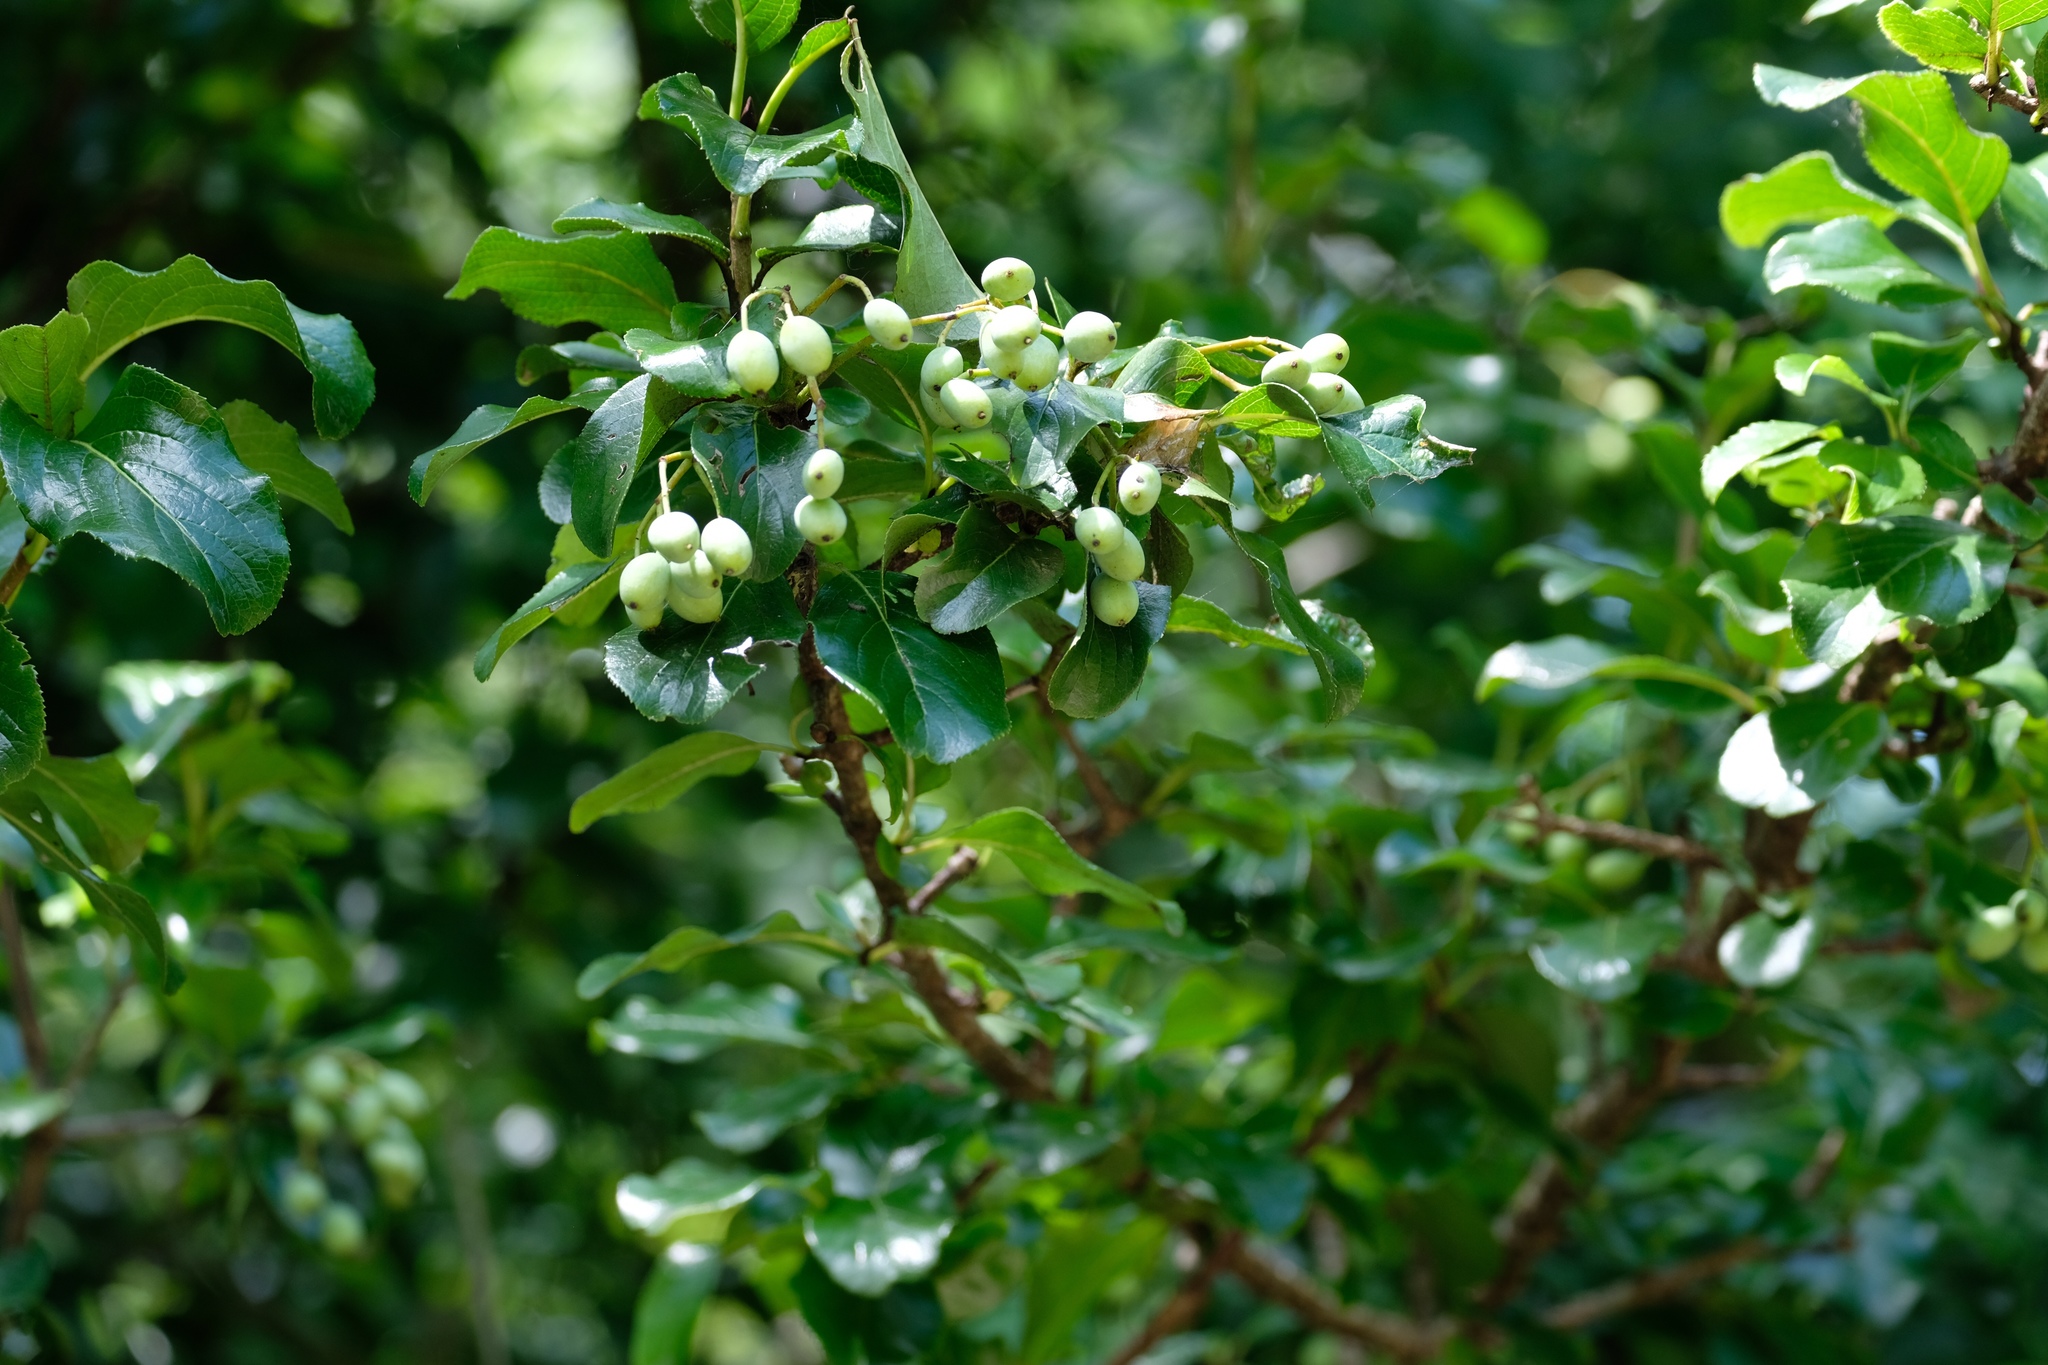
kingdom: Plantae
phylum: Tracheophyta
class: Magnoliopsida
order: Dipsacales
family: Viburnaceae
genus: Viburnum
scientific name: Viburnum rufidulum
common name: Blue haw
